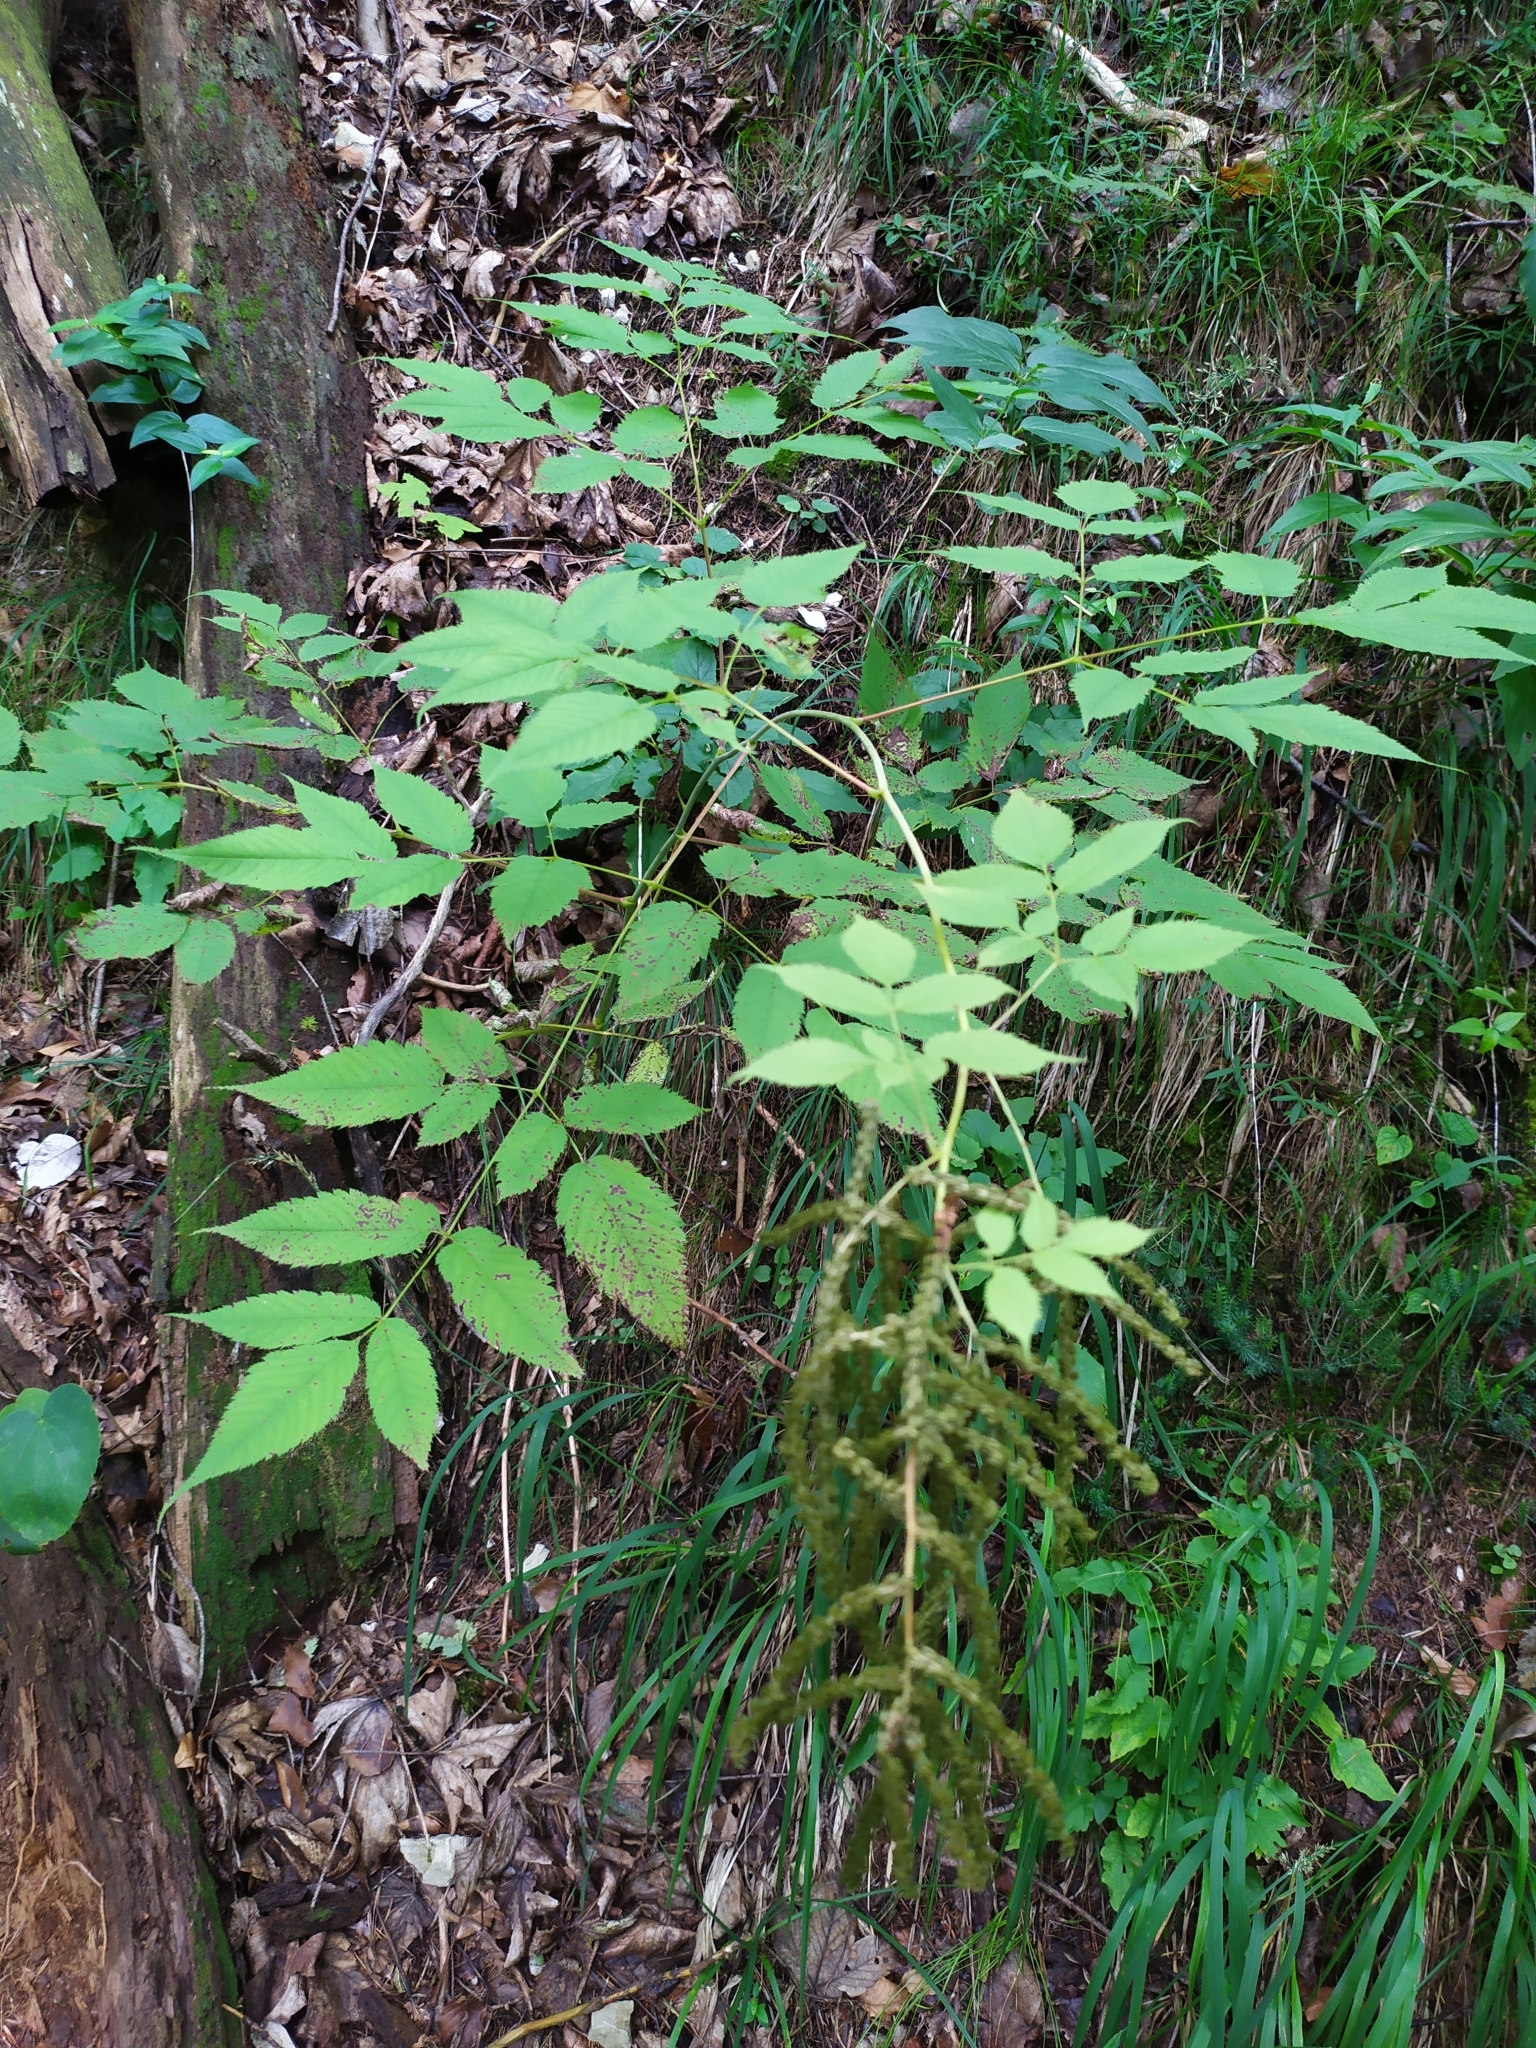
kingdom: Plantae
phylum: Tracheophyta
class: Magnoliopsida
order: Rosales
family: Rosaceae
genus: Aruncus
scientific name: Aruncus dioicus
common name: Buck's-beard
